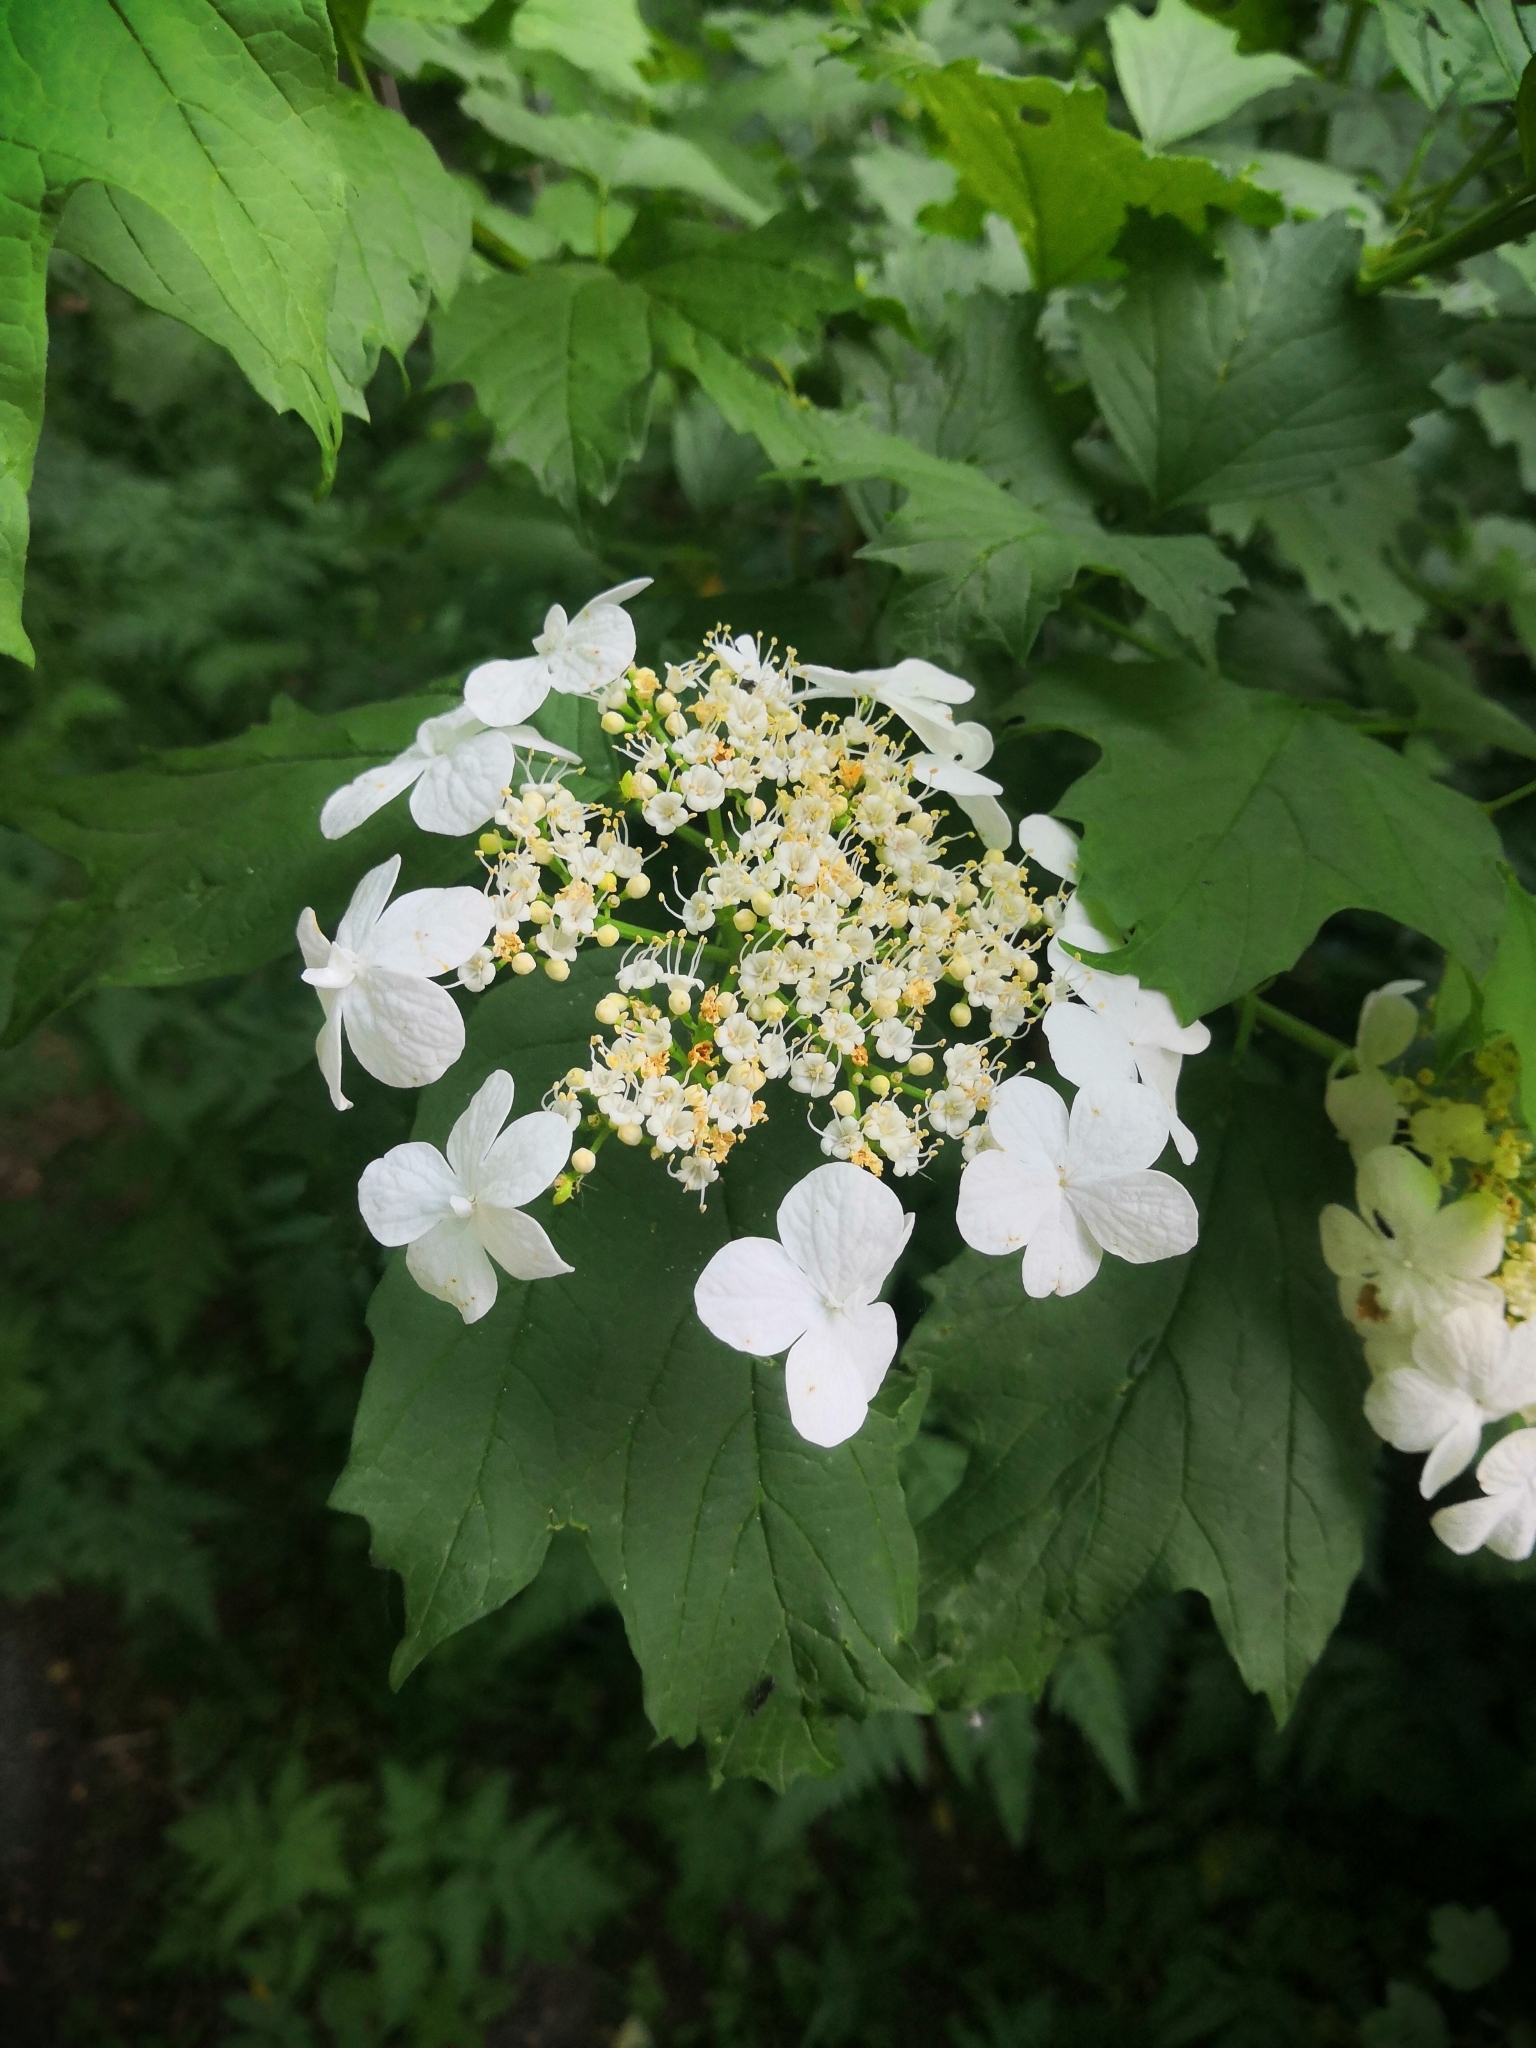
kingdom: Plantae
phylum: Tracheophyta
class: Magnoliopsida
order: Dipsacales
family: Viburnaceae
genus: Viburnum
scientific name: Viburnum opulus
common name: Guelder-rose
